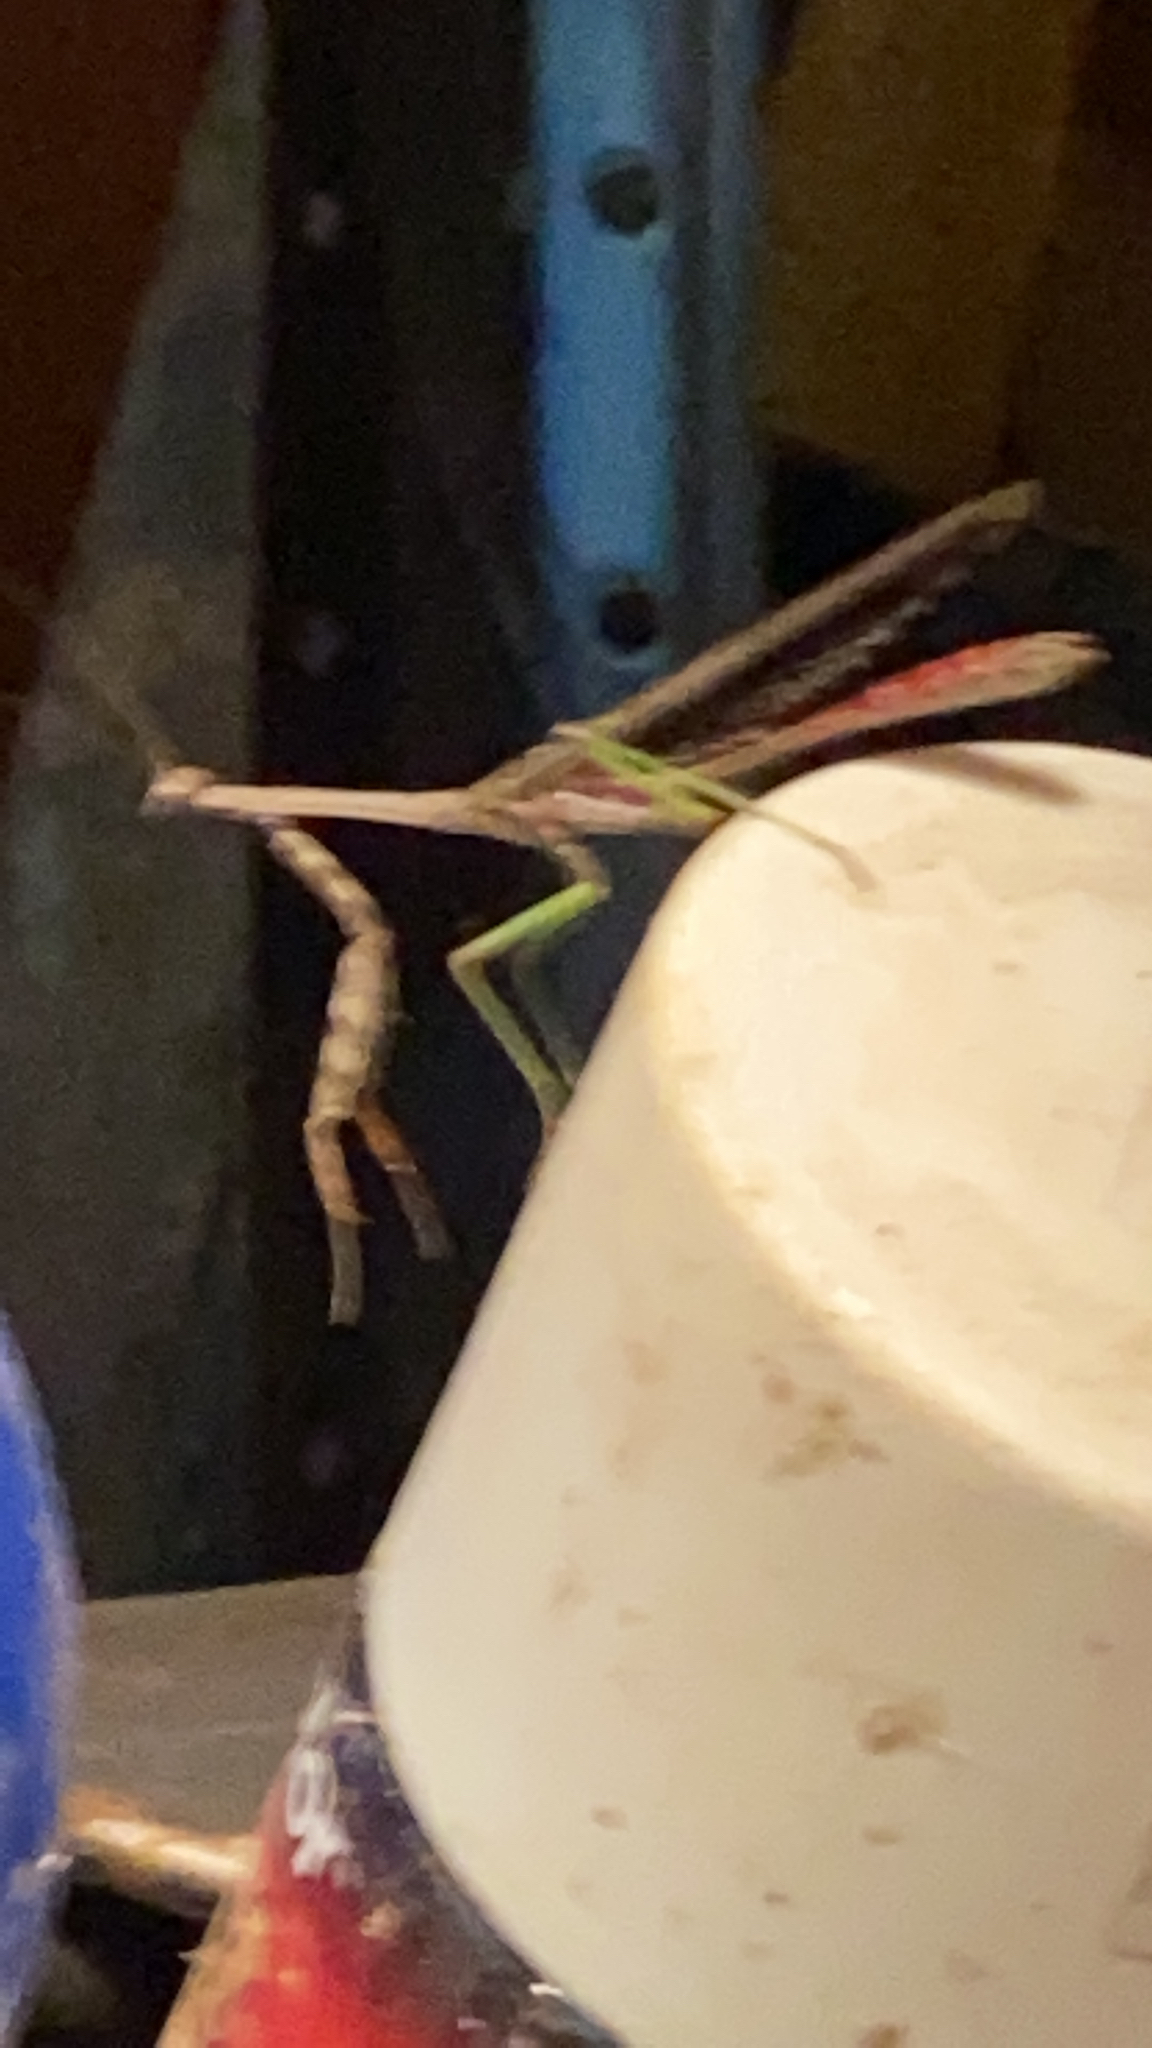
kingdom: Animalia
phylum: Arthropoda
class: Insecta
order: Mantodea
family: Mantidae
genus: Stagmomantis
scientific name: Stagmomantis carolina
